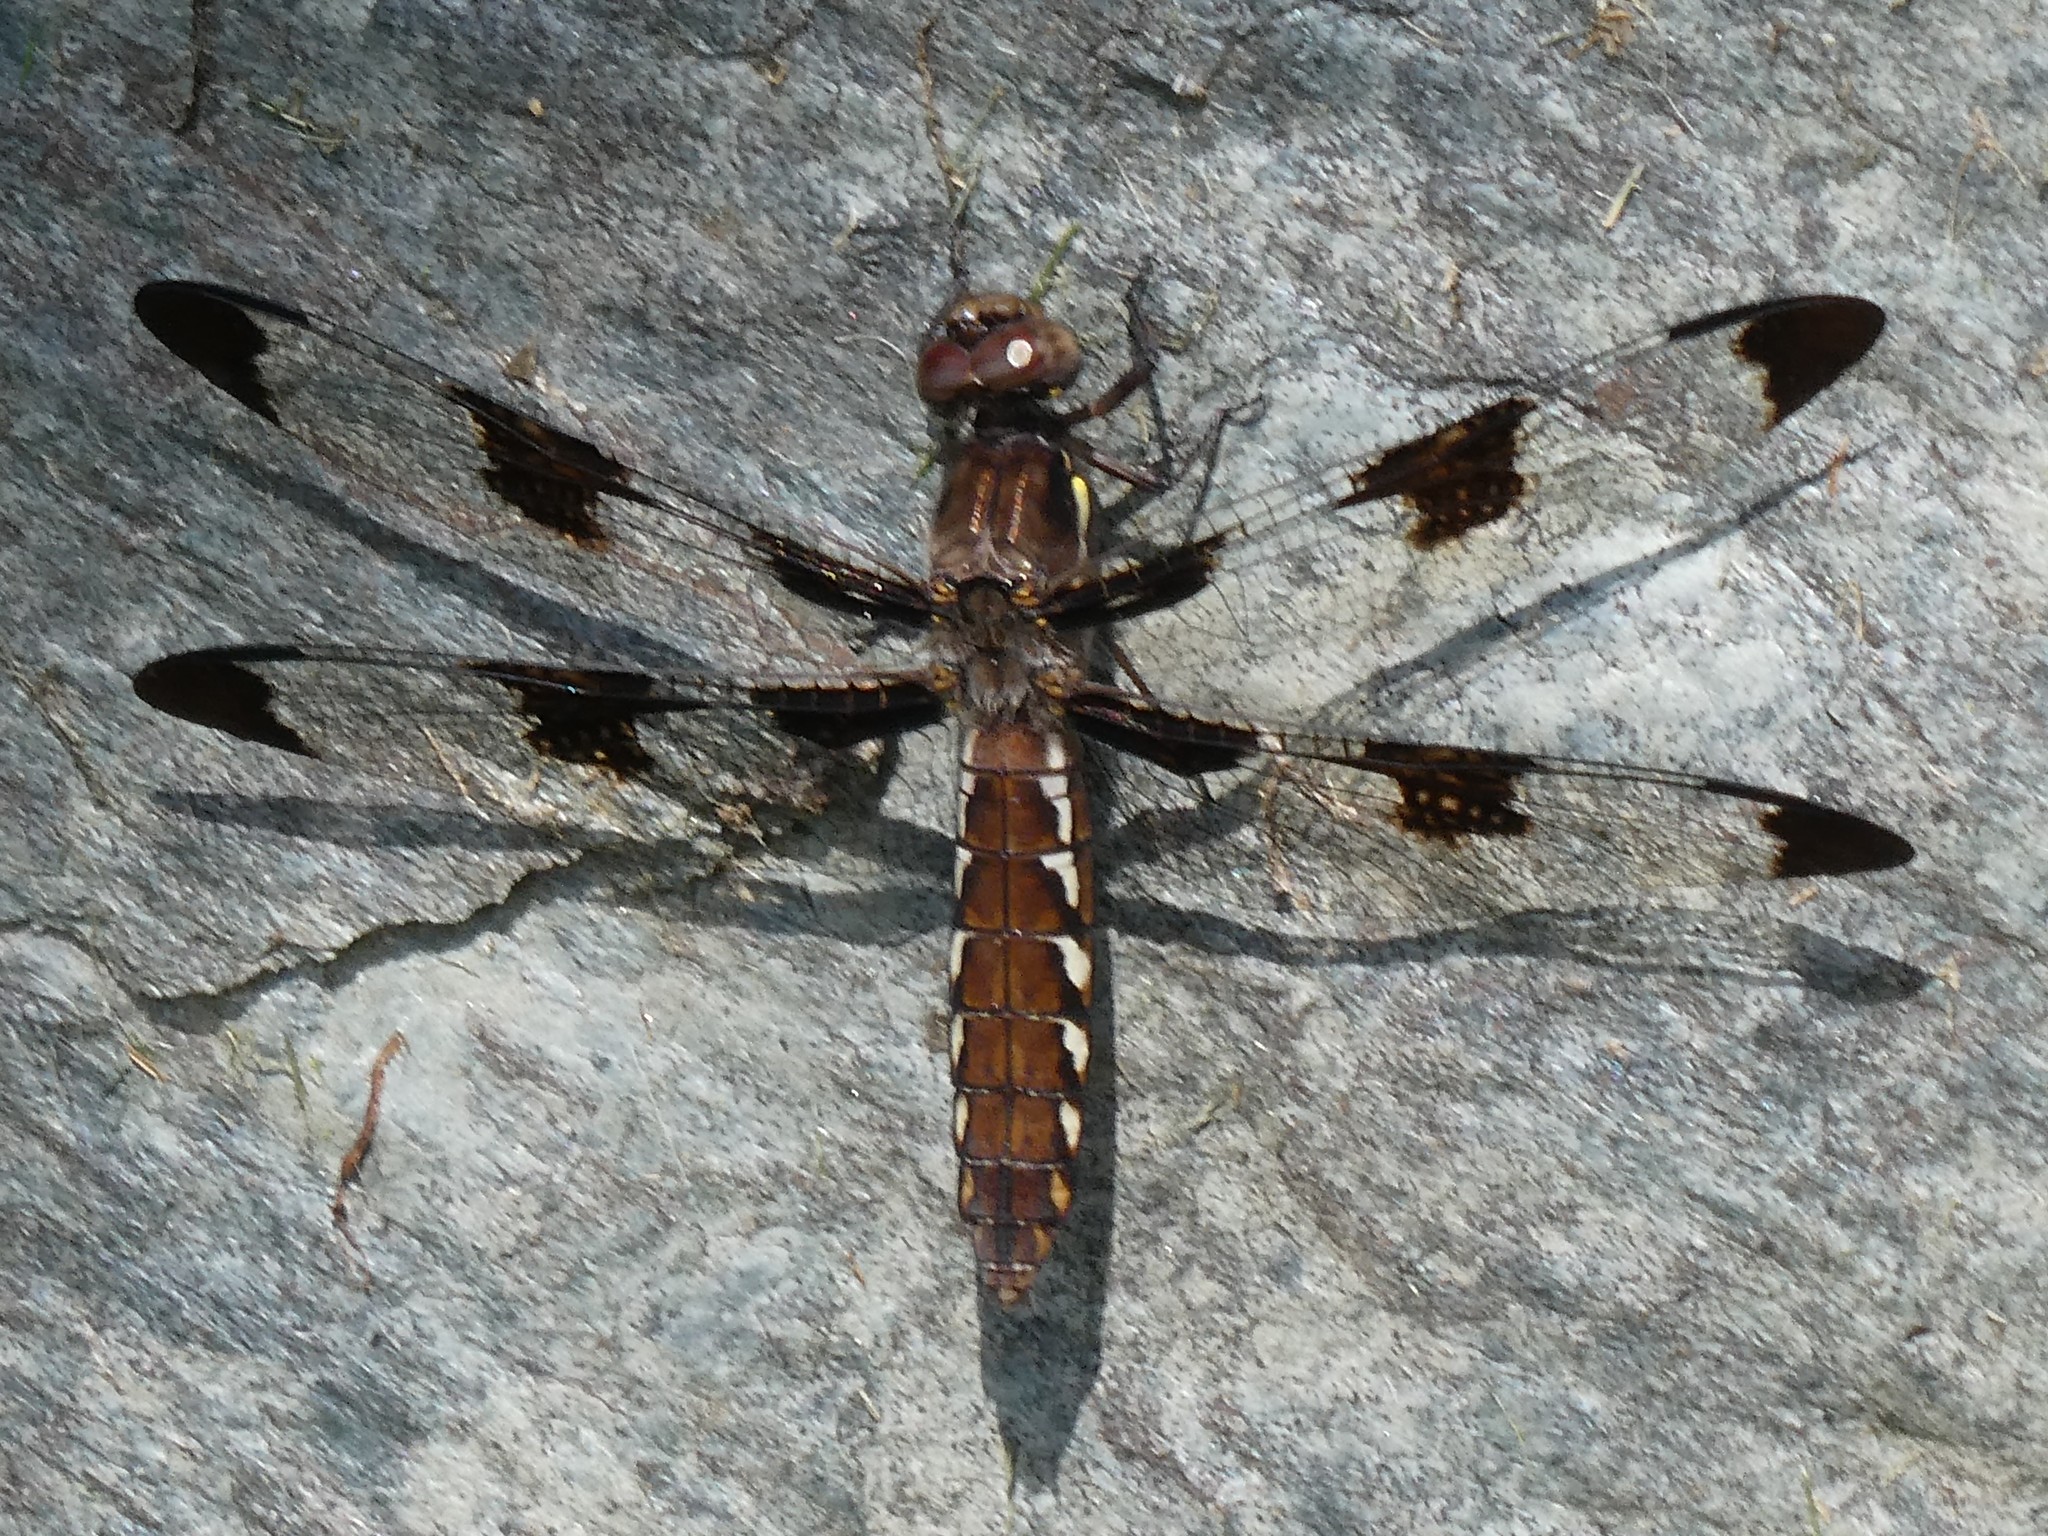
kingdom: Animalia
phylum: Arthropoda
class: Insecta
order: Odonata
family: Libellulidae
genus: Plathemis
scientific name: Plathemis lydia
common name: Common whitetail
